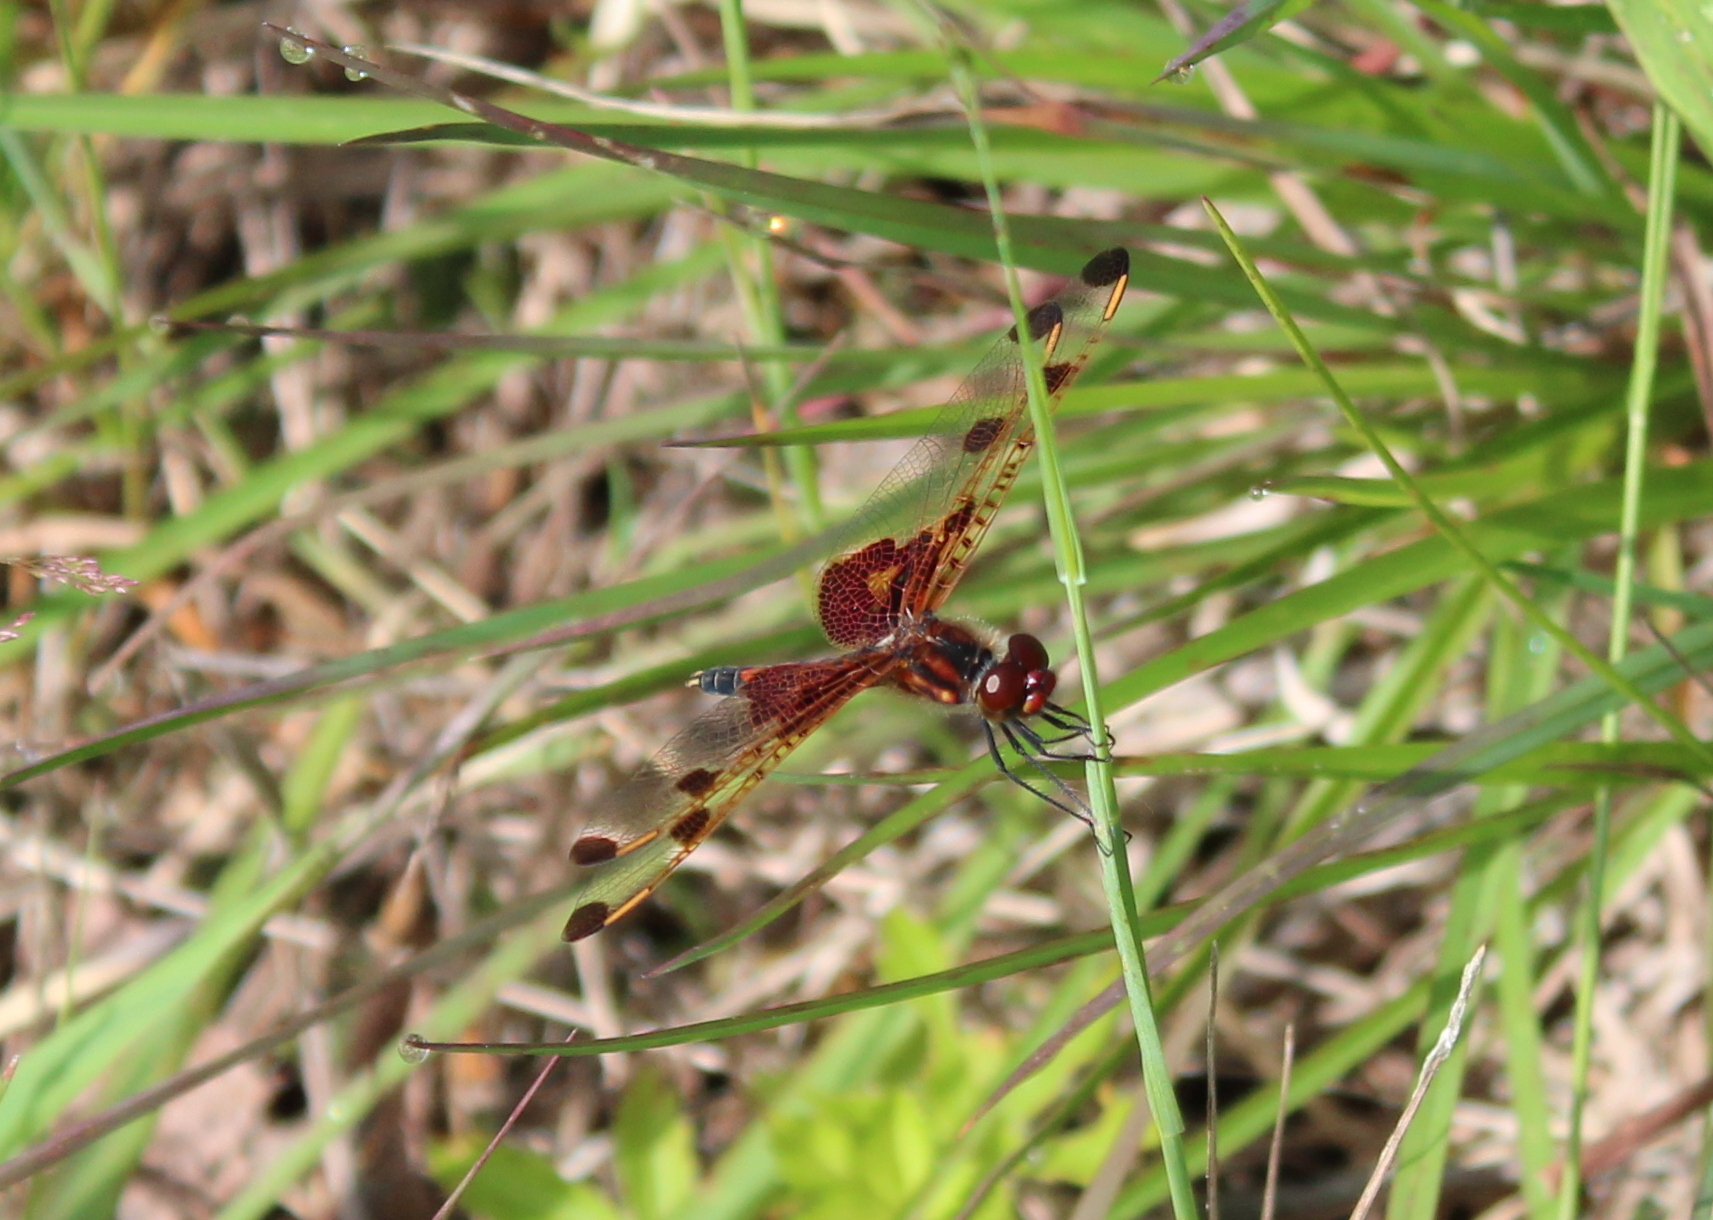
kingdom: Animalia
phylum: Arthropoda
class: Insecta
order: Odonata
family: Libellulidae
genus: Celithemis
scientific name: Celithemis elisa
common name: Calico pennant
